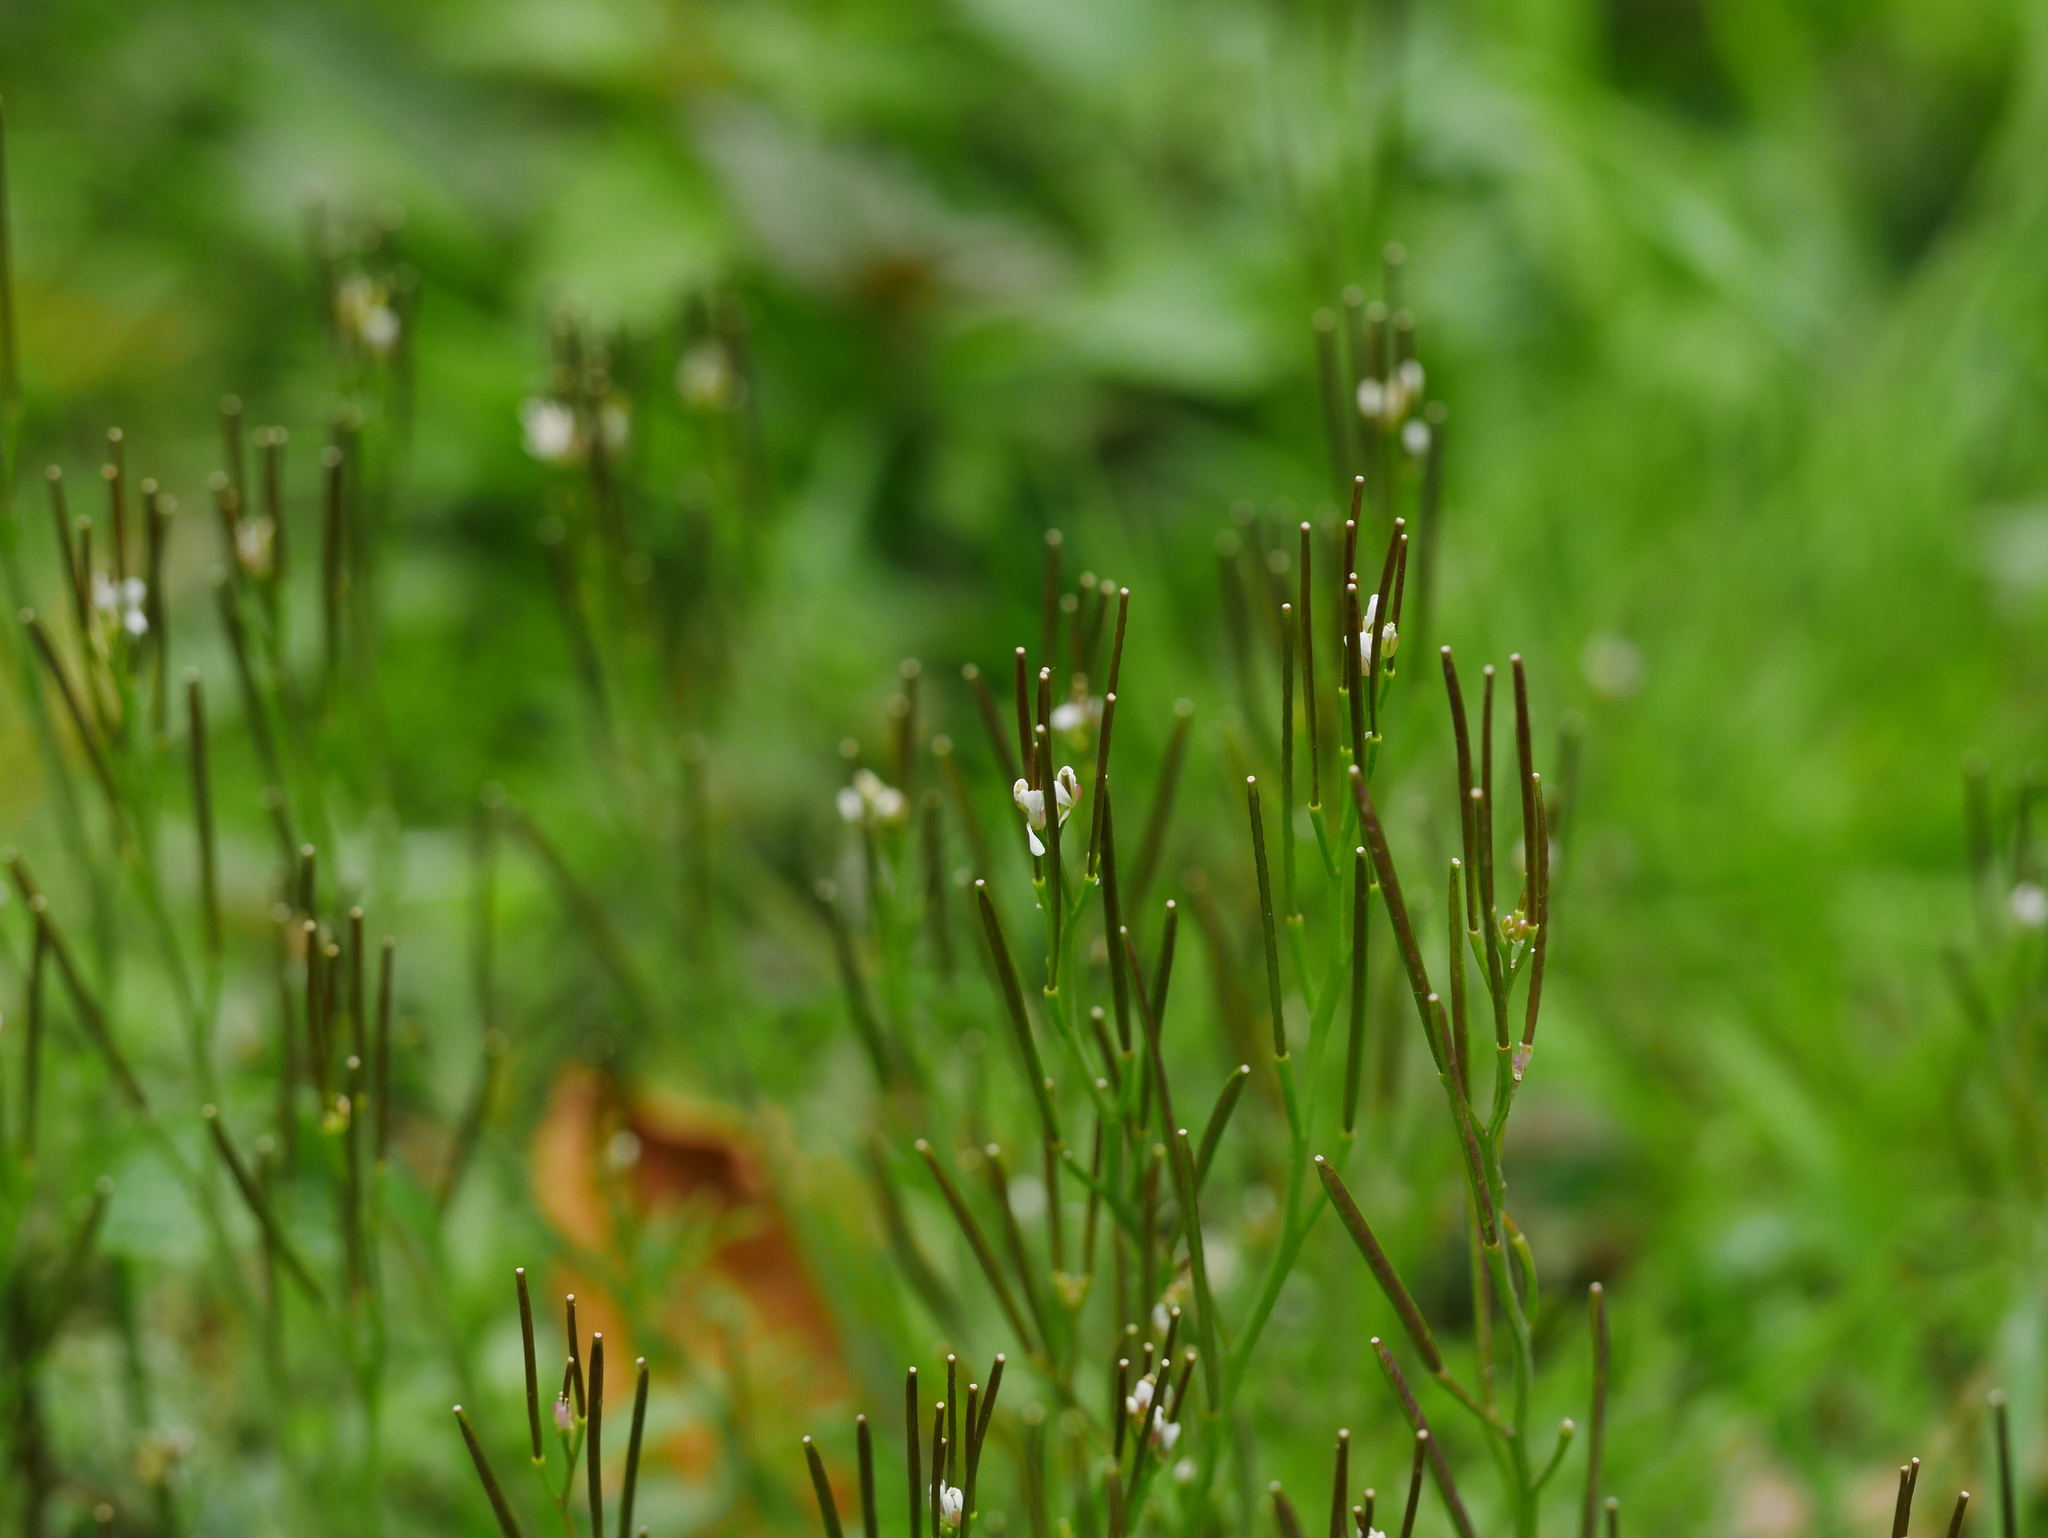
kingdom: Plantae
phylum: Tracheophyta
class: Magnoliopsida
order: Brassicales
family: Brassicaceae
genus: Cardamine
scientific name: Cardamine hirsuta
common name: Hairy bittercress
